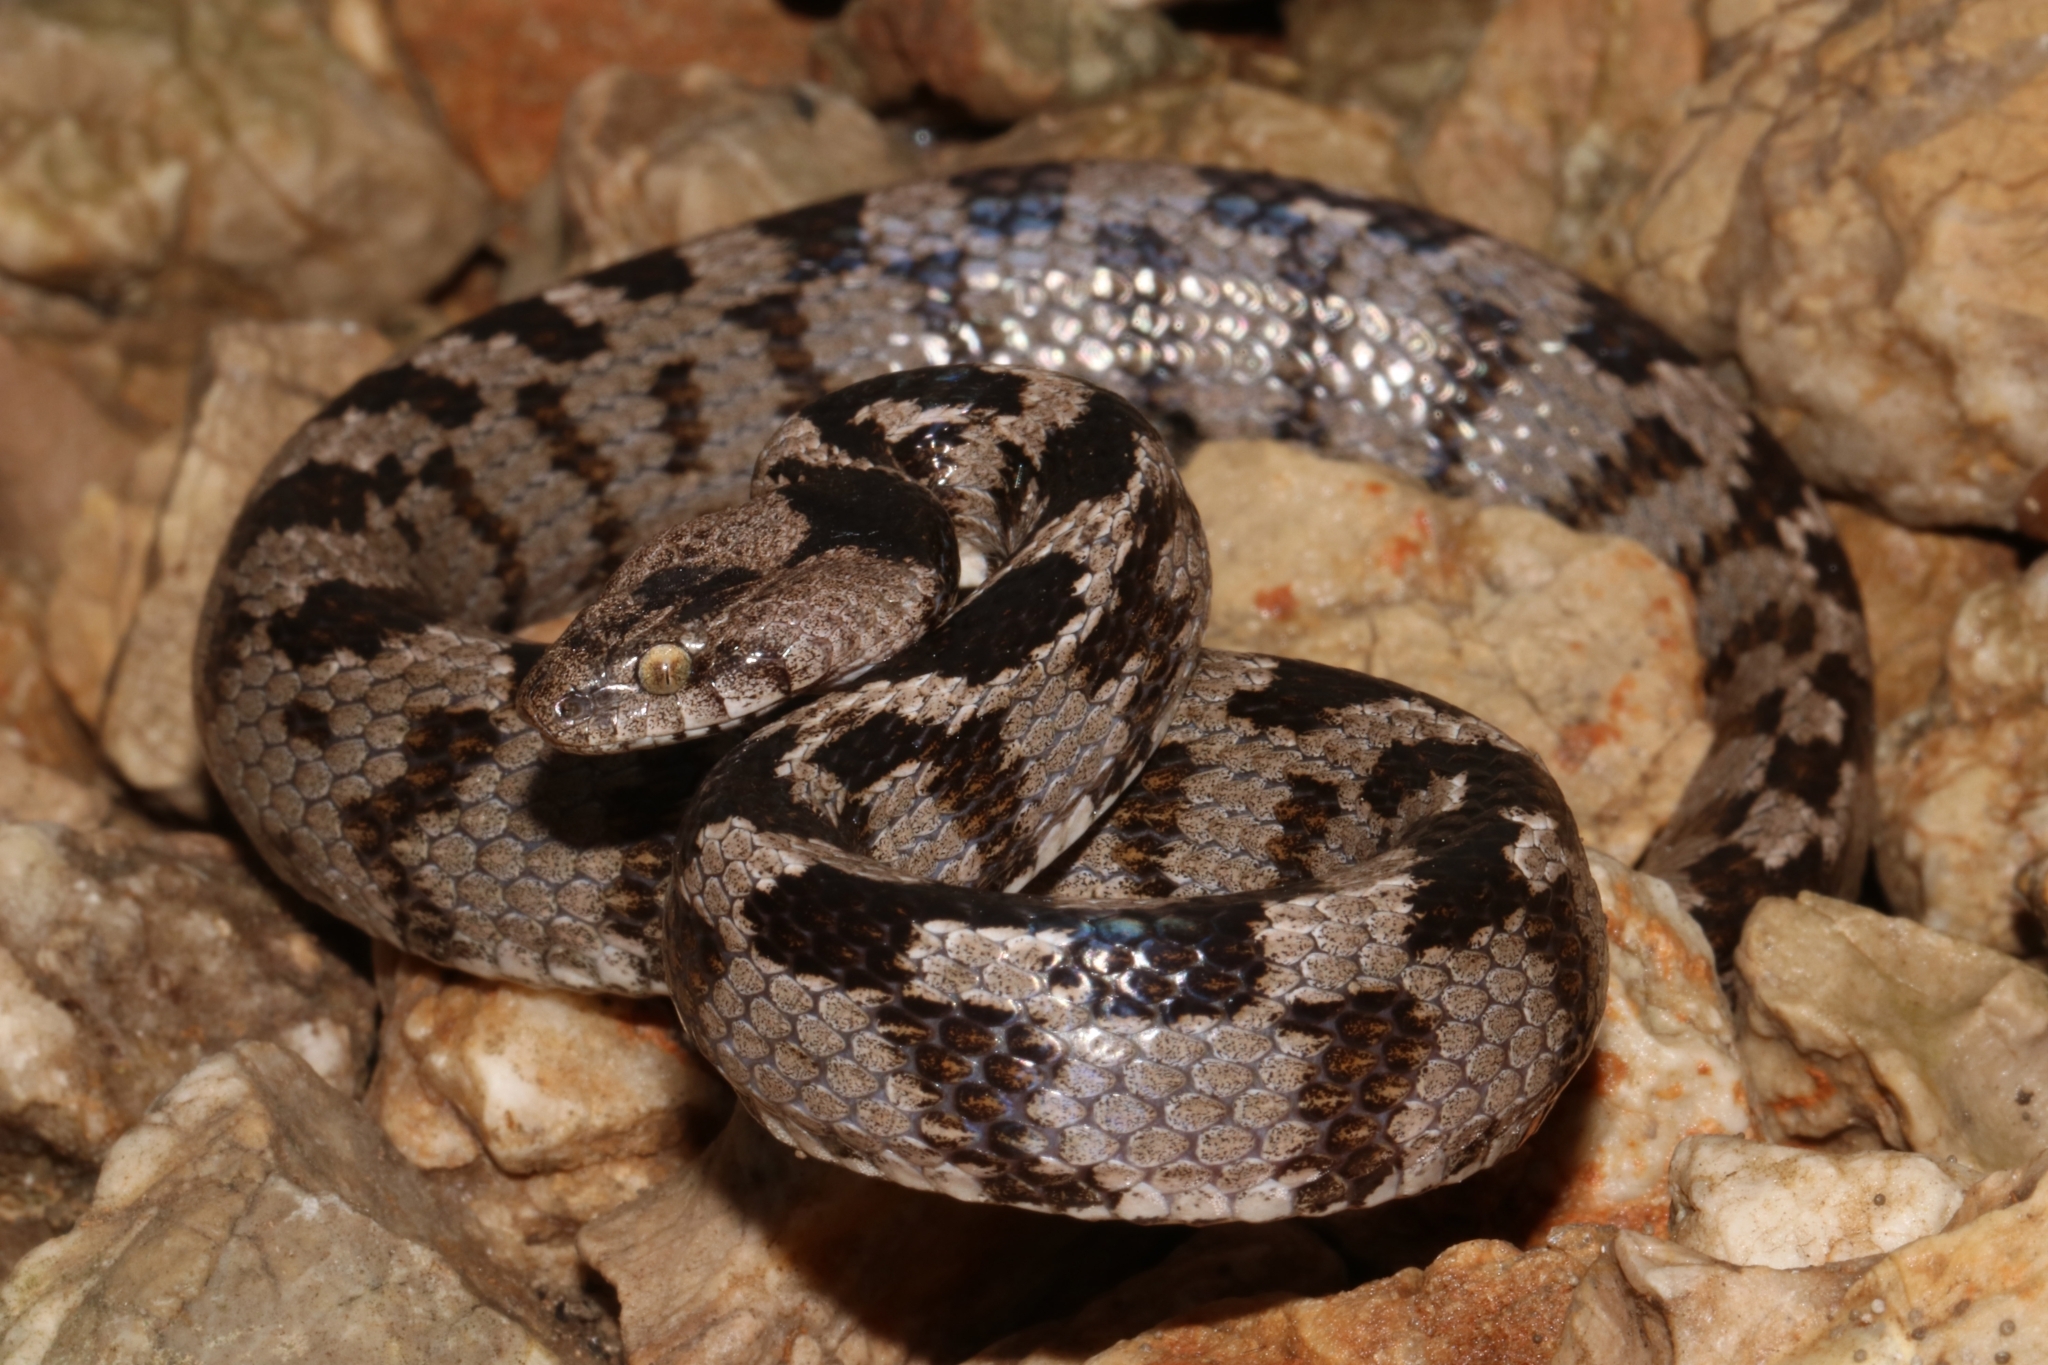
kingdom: Animalia
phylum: Chordata
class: Squamata
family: Colubridae
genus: Telescopus
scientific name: Telescopus fallax
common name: Cat snake
